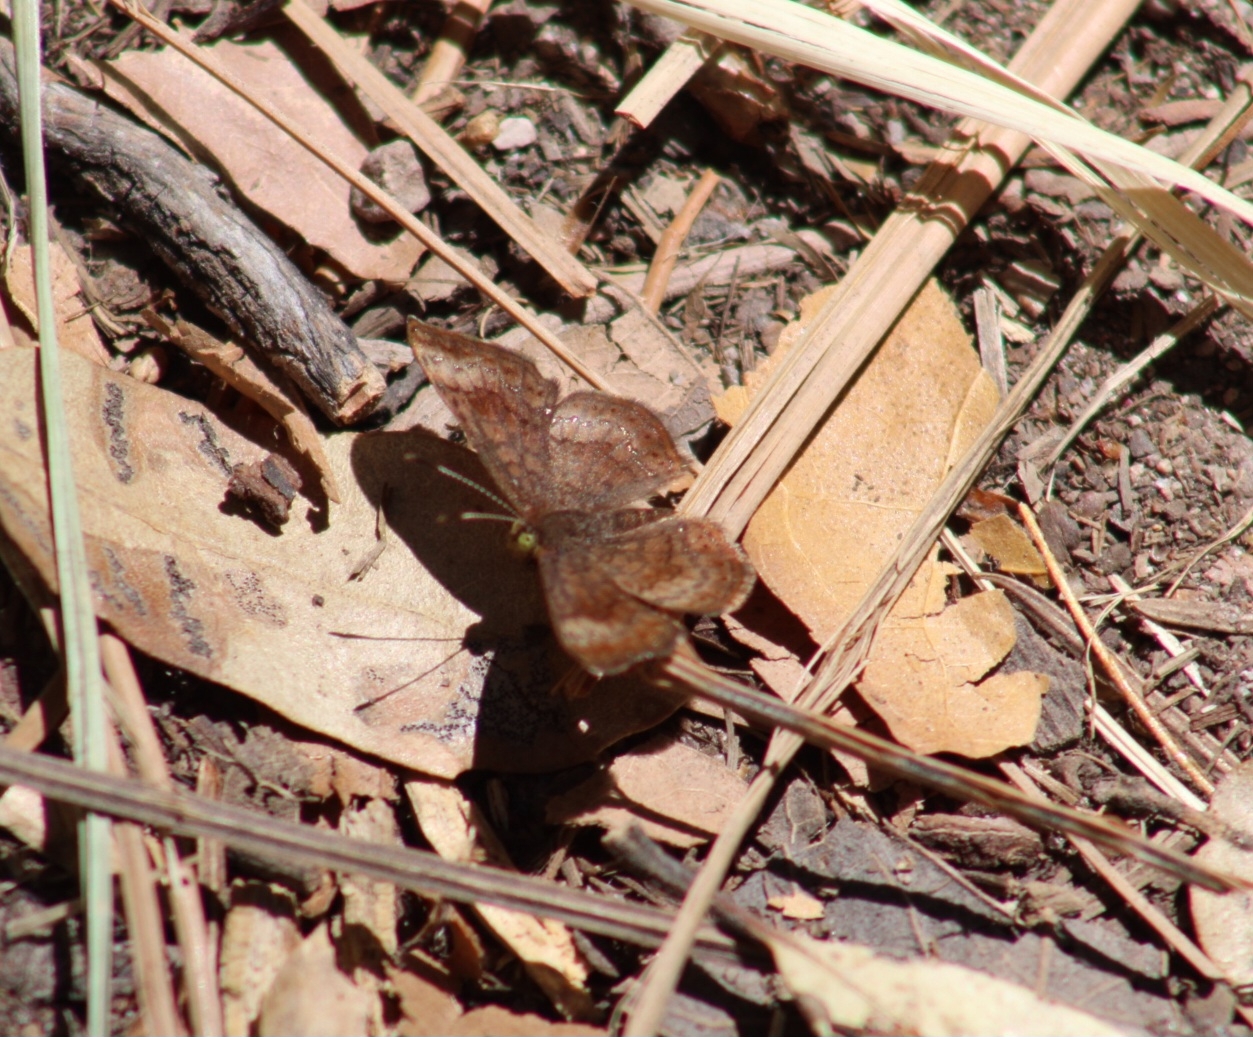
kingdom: Animalia
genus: Calephelis
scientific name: Calephelis arizonensis
